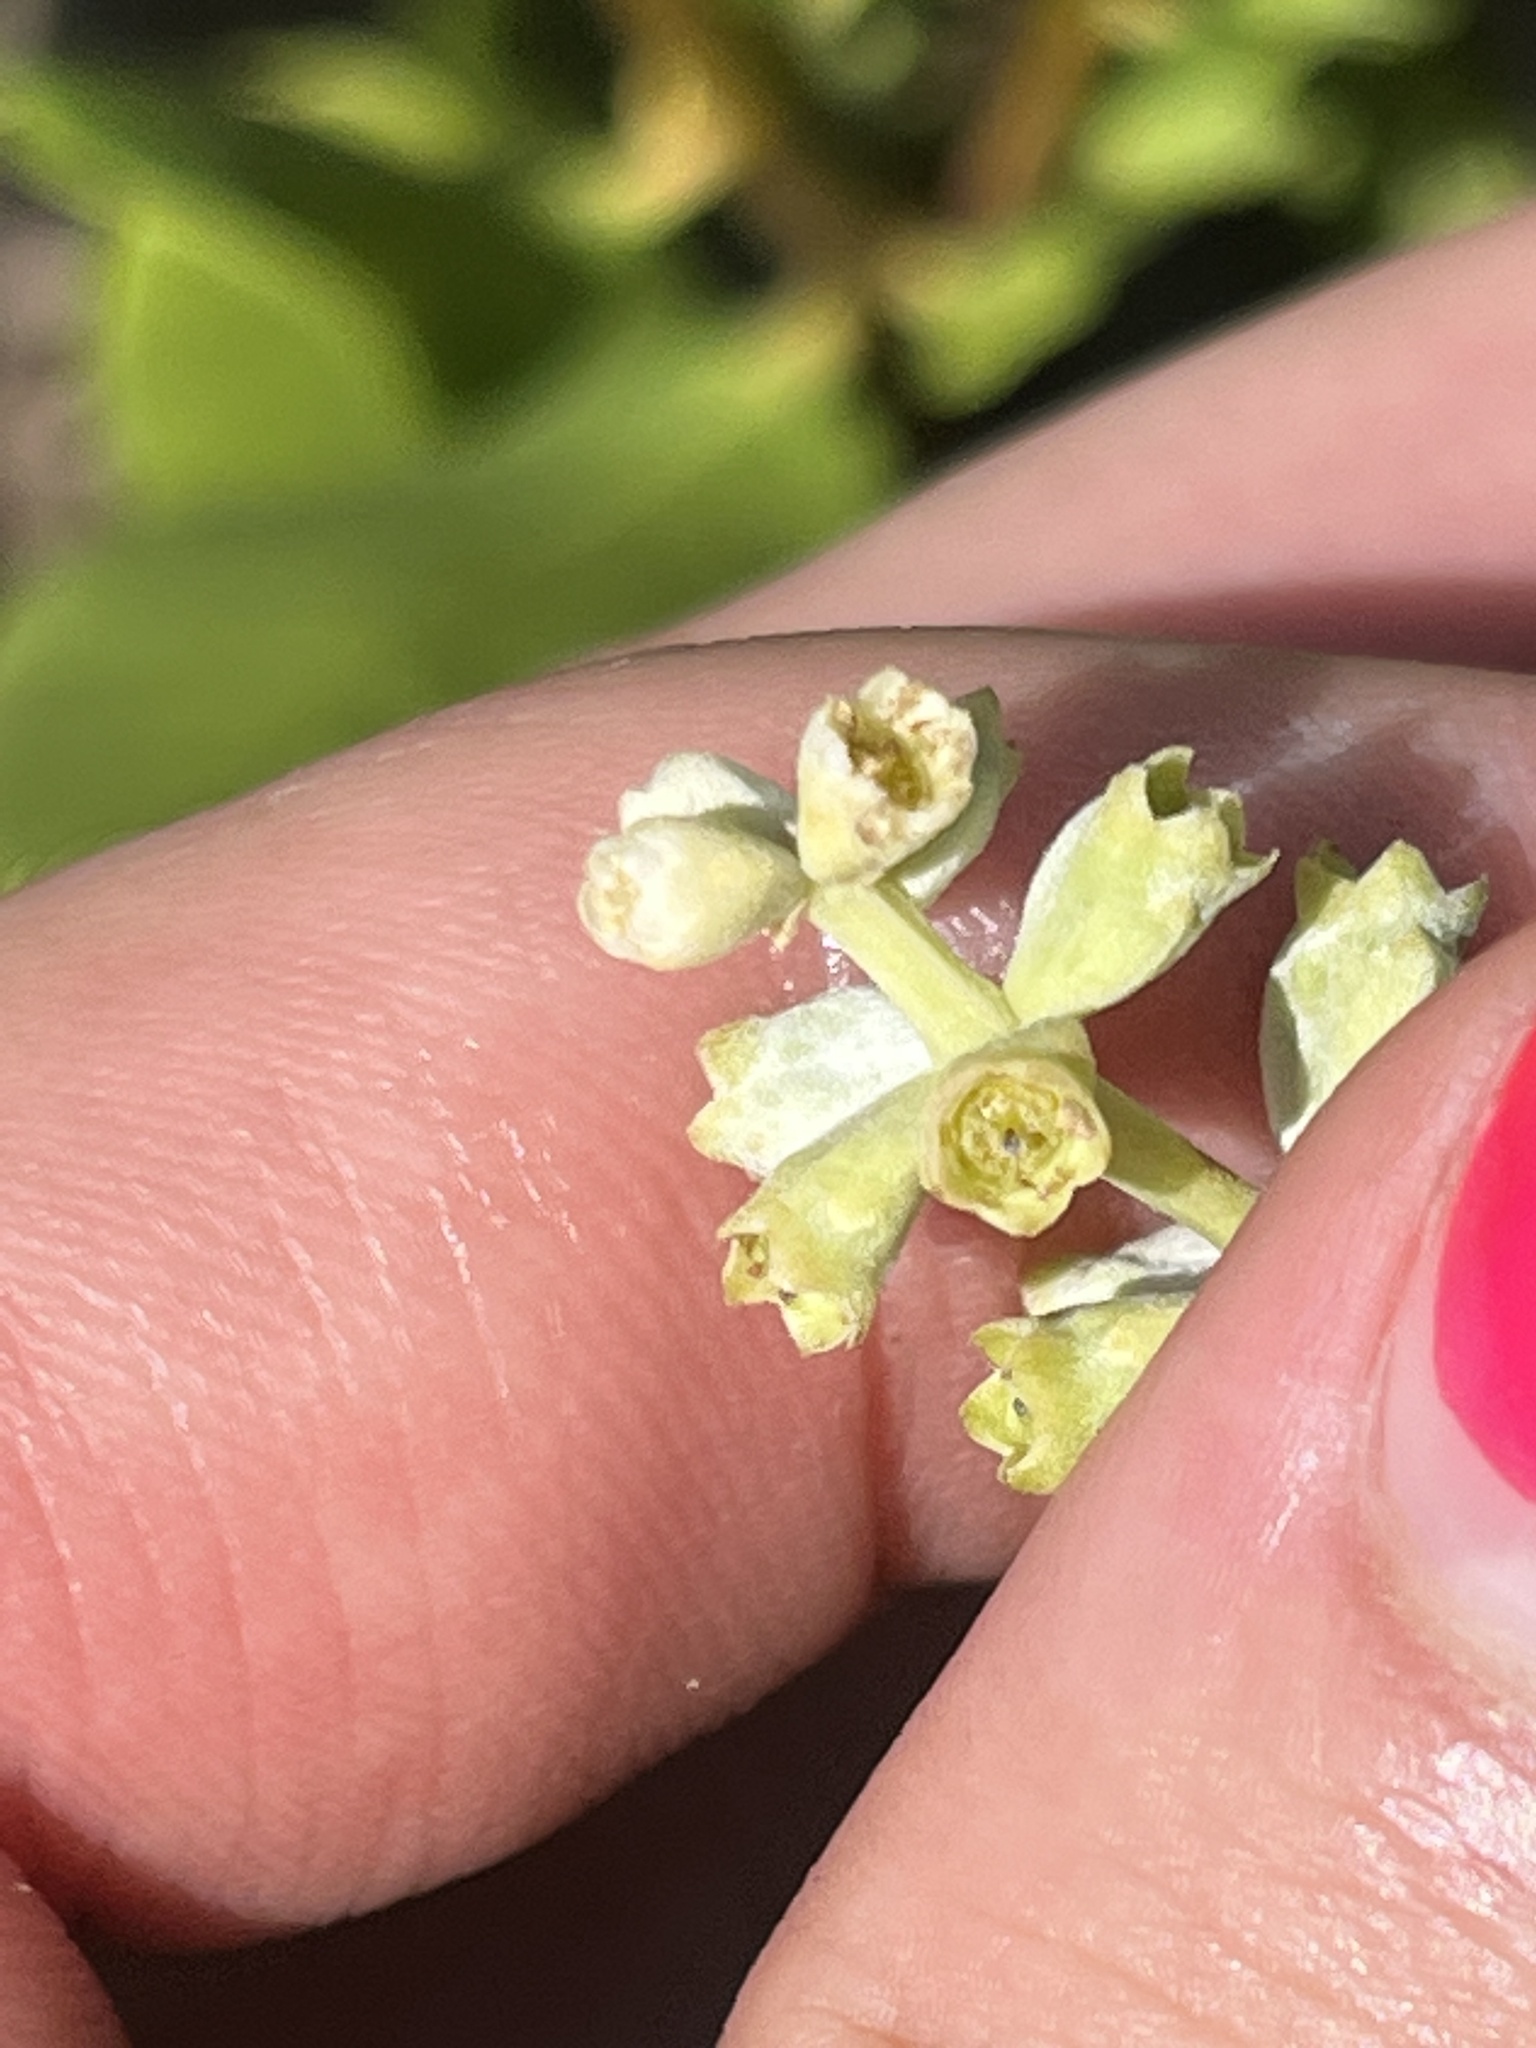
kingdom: Plantae
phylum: Tracheophyta
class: Magnoliopsida
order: Myrtales
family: Combretaceae
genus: Laguncularia
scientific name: Laguncularia racemosa
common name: White mangrove
